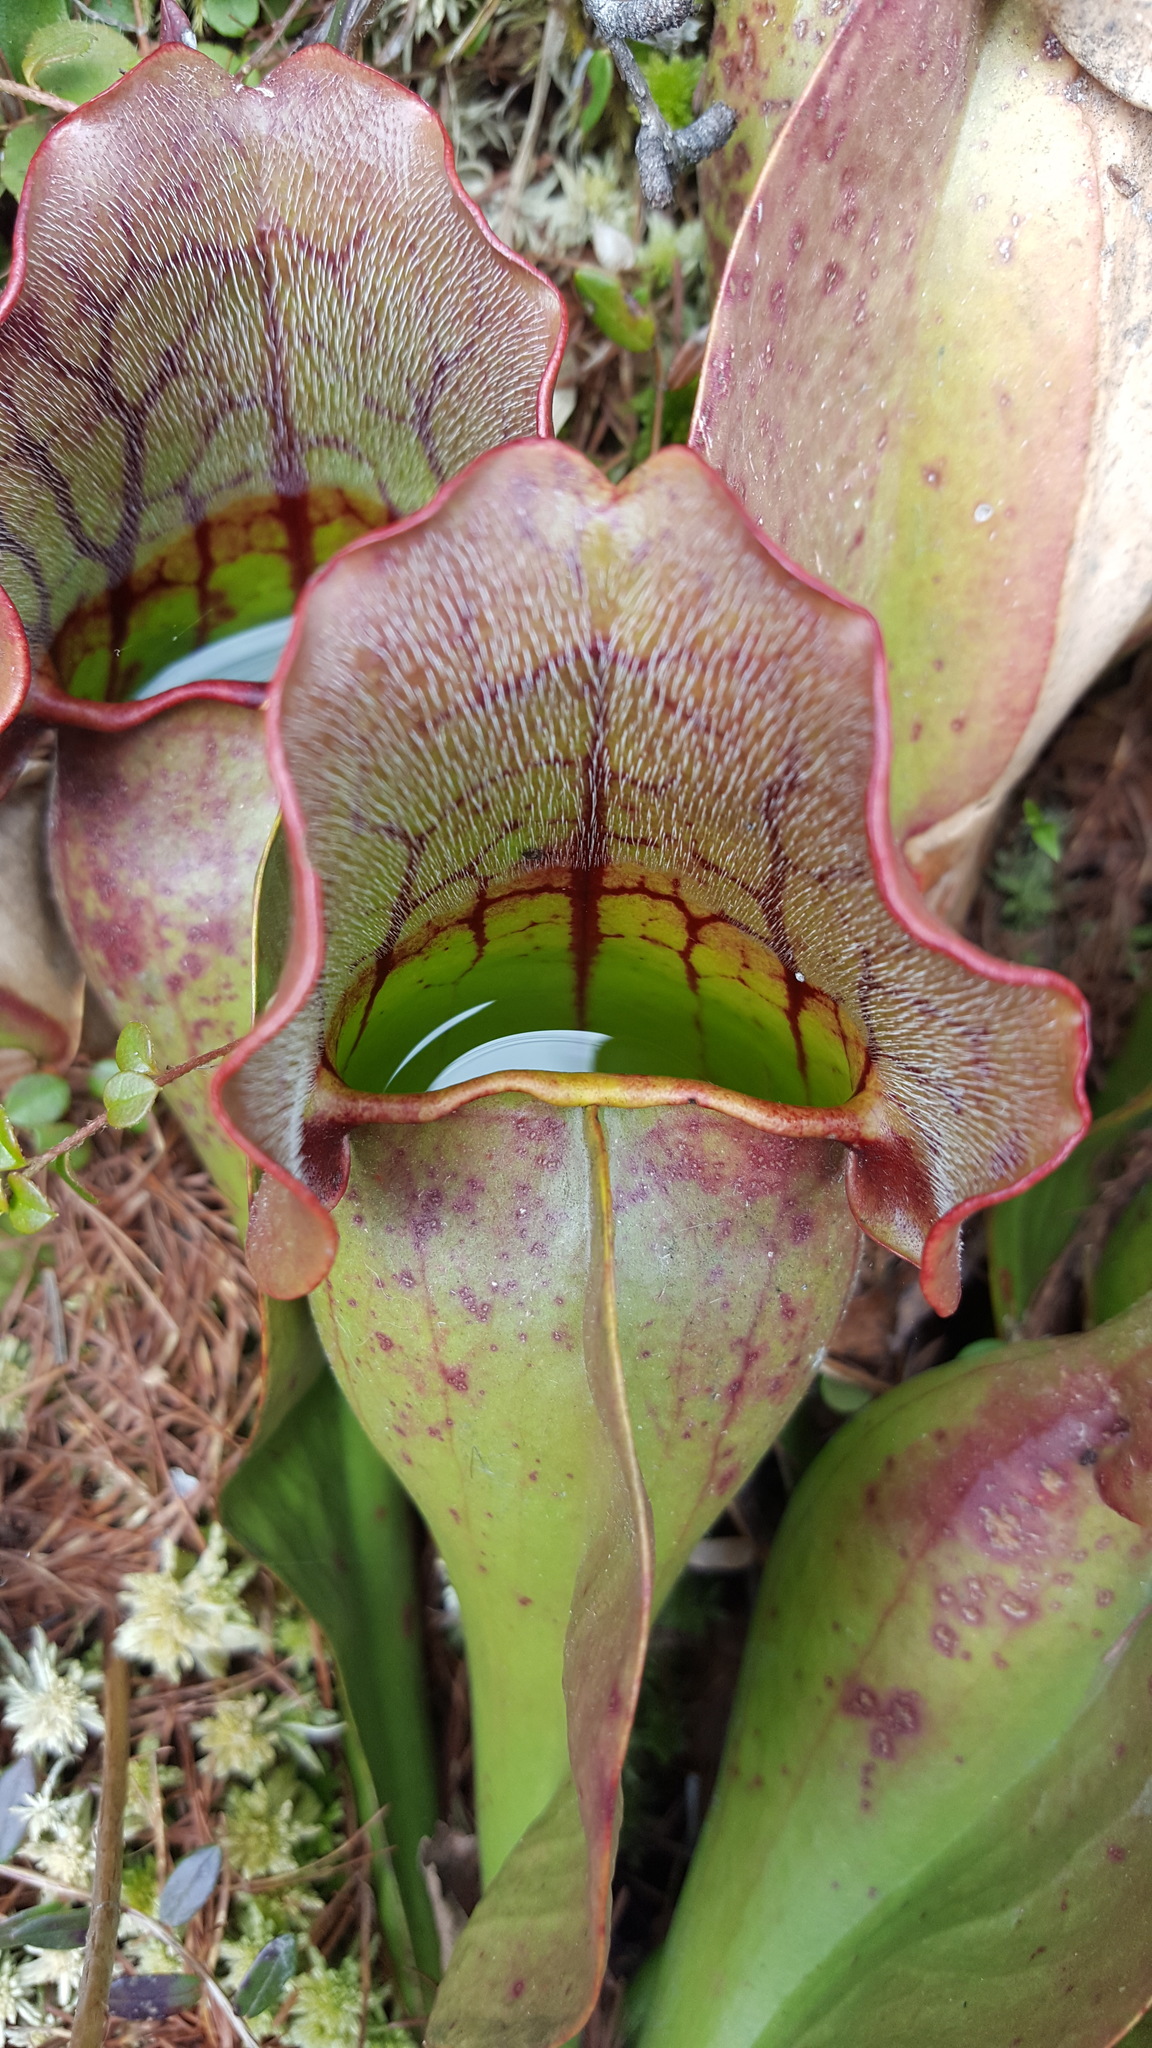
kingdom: Plantae
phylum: Tracheophyta
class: Magnoliopsida
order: Ericales
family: Sarraceniaceae
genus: Sarracenia
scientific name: Sarracenia purpurea
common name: Pitcherplant
